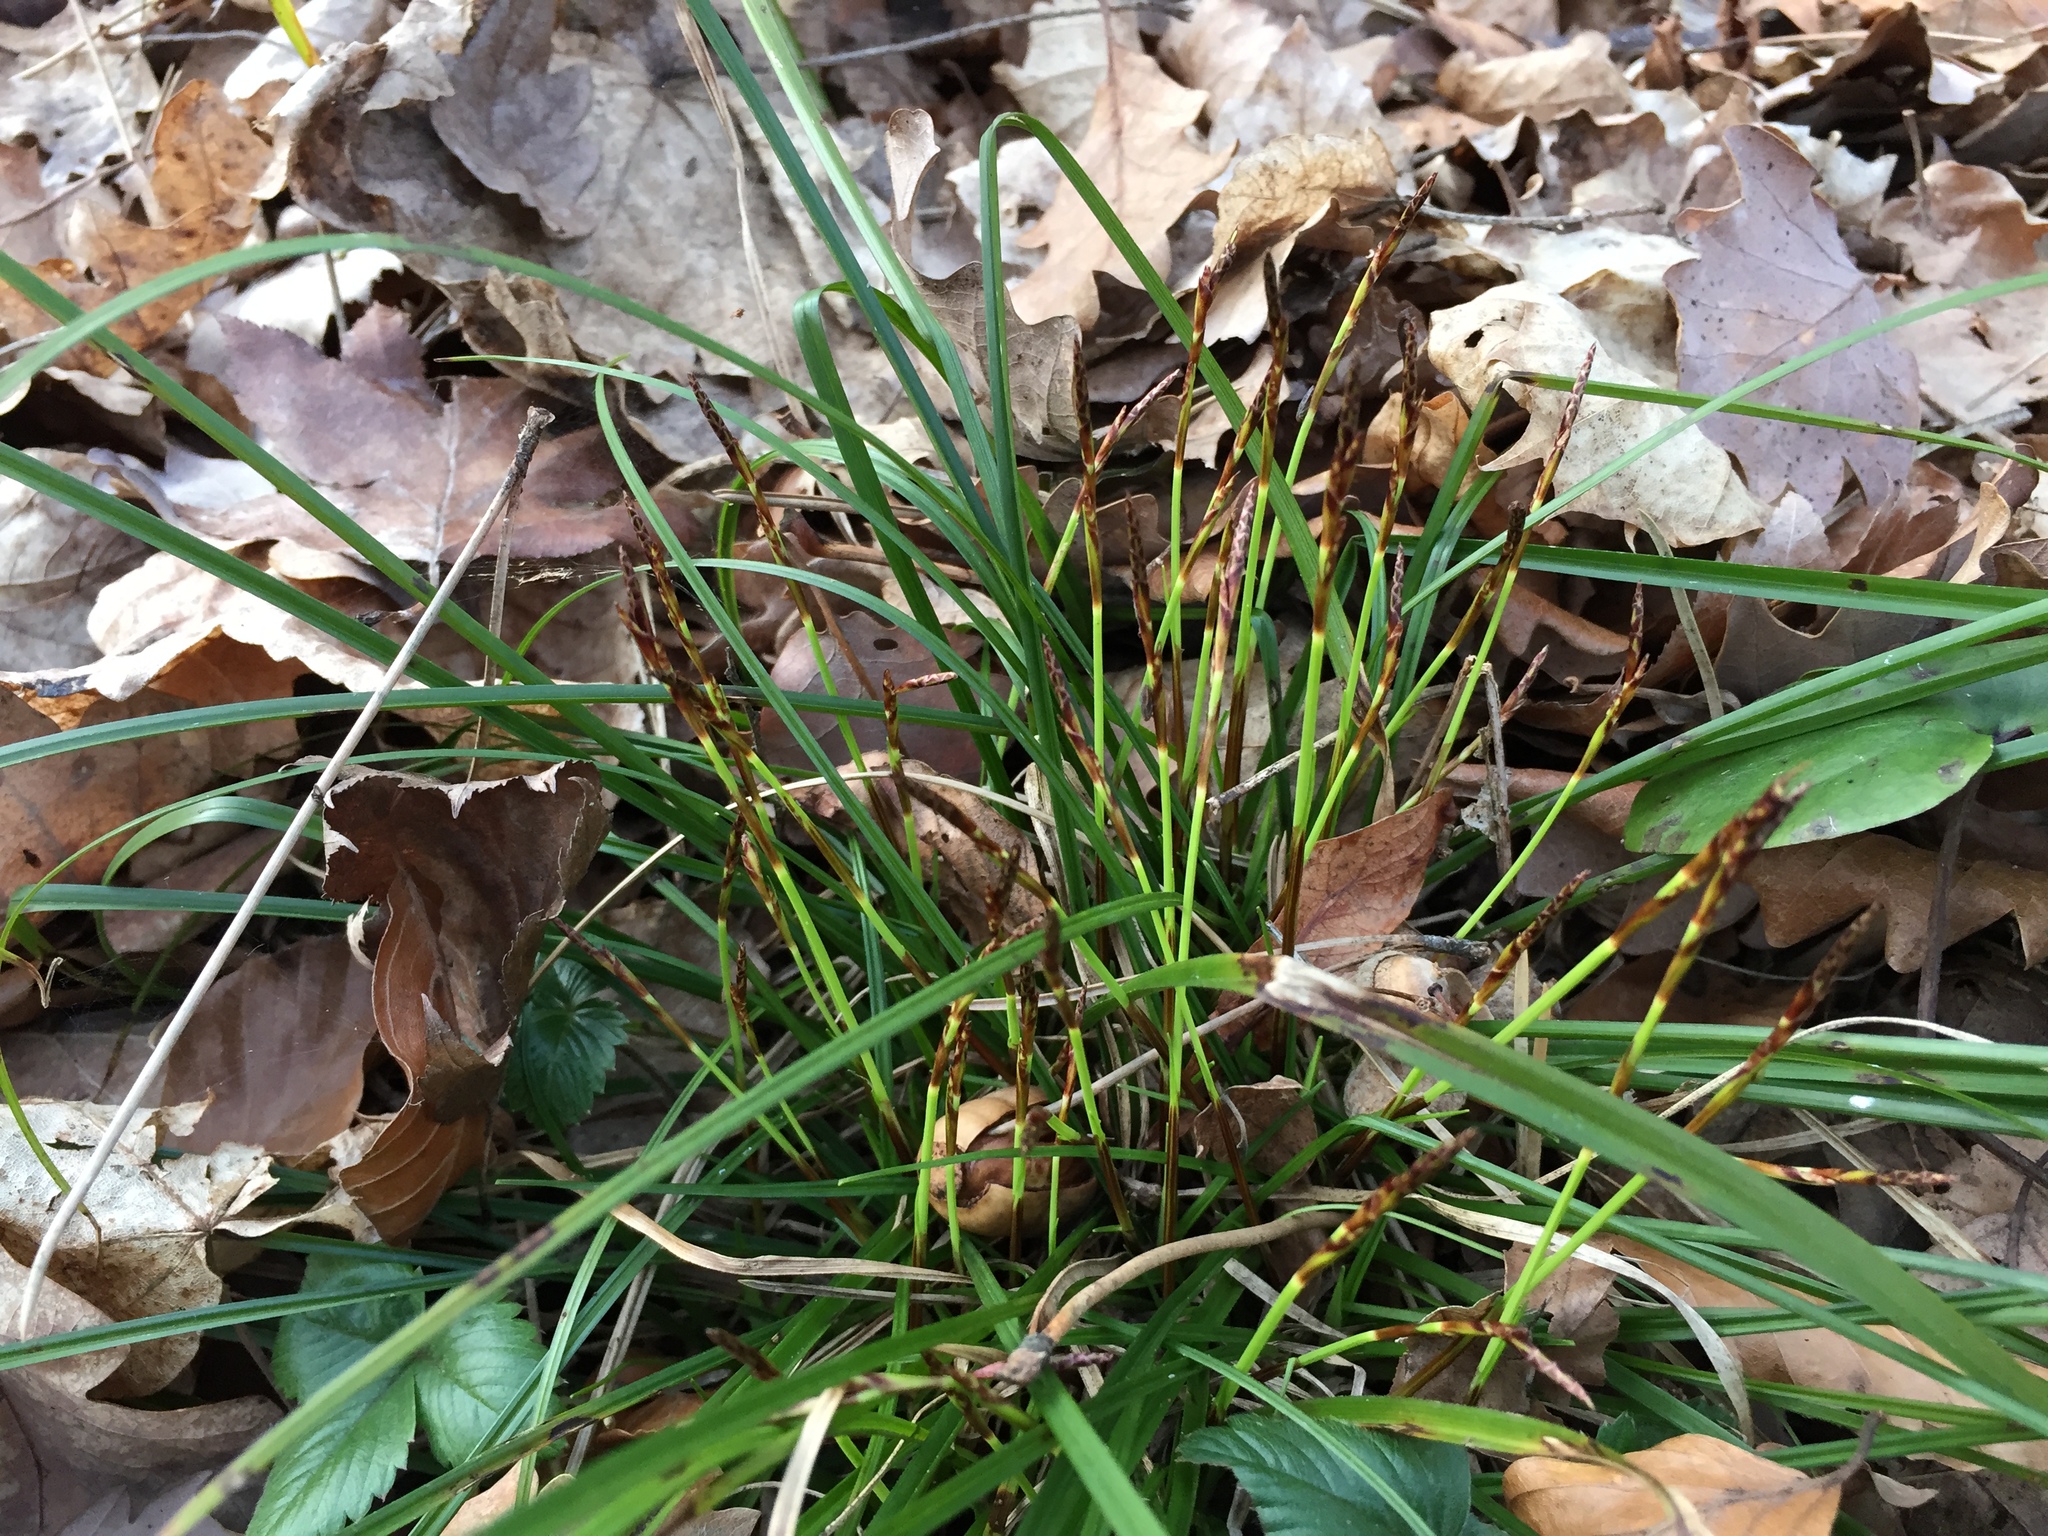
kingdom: Plantae
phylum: Tracheophyta
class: Liliopsida
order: Poales
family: Cyperaceae
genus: Carex
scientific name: Carex digitata
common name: Fingered sedge
